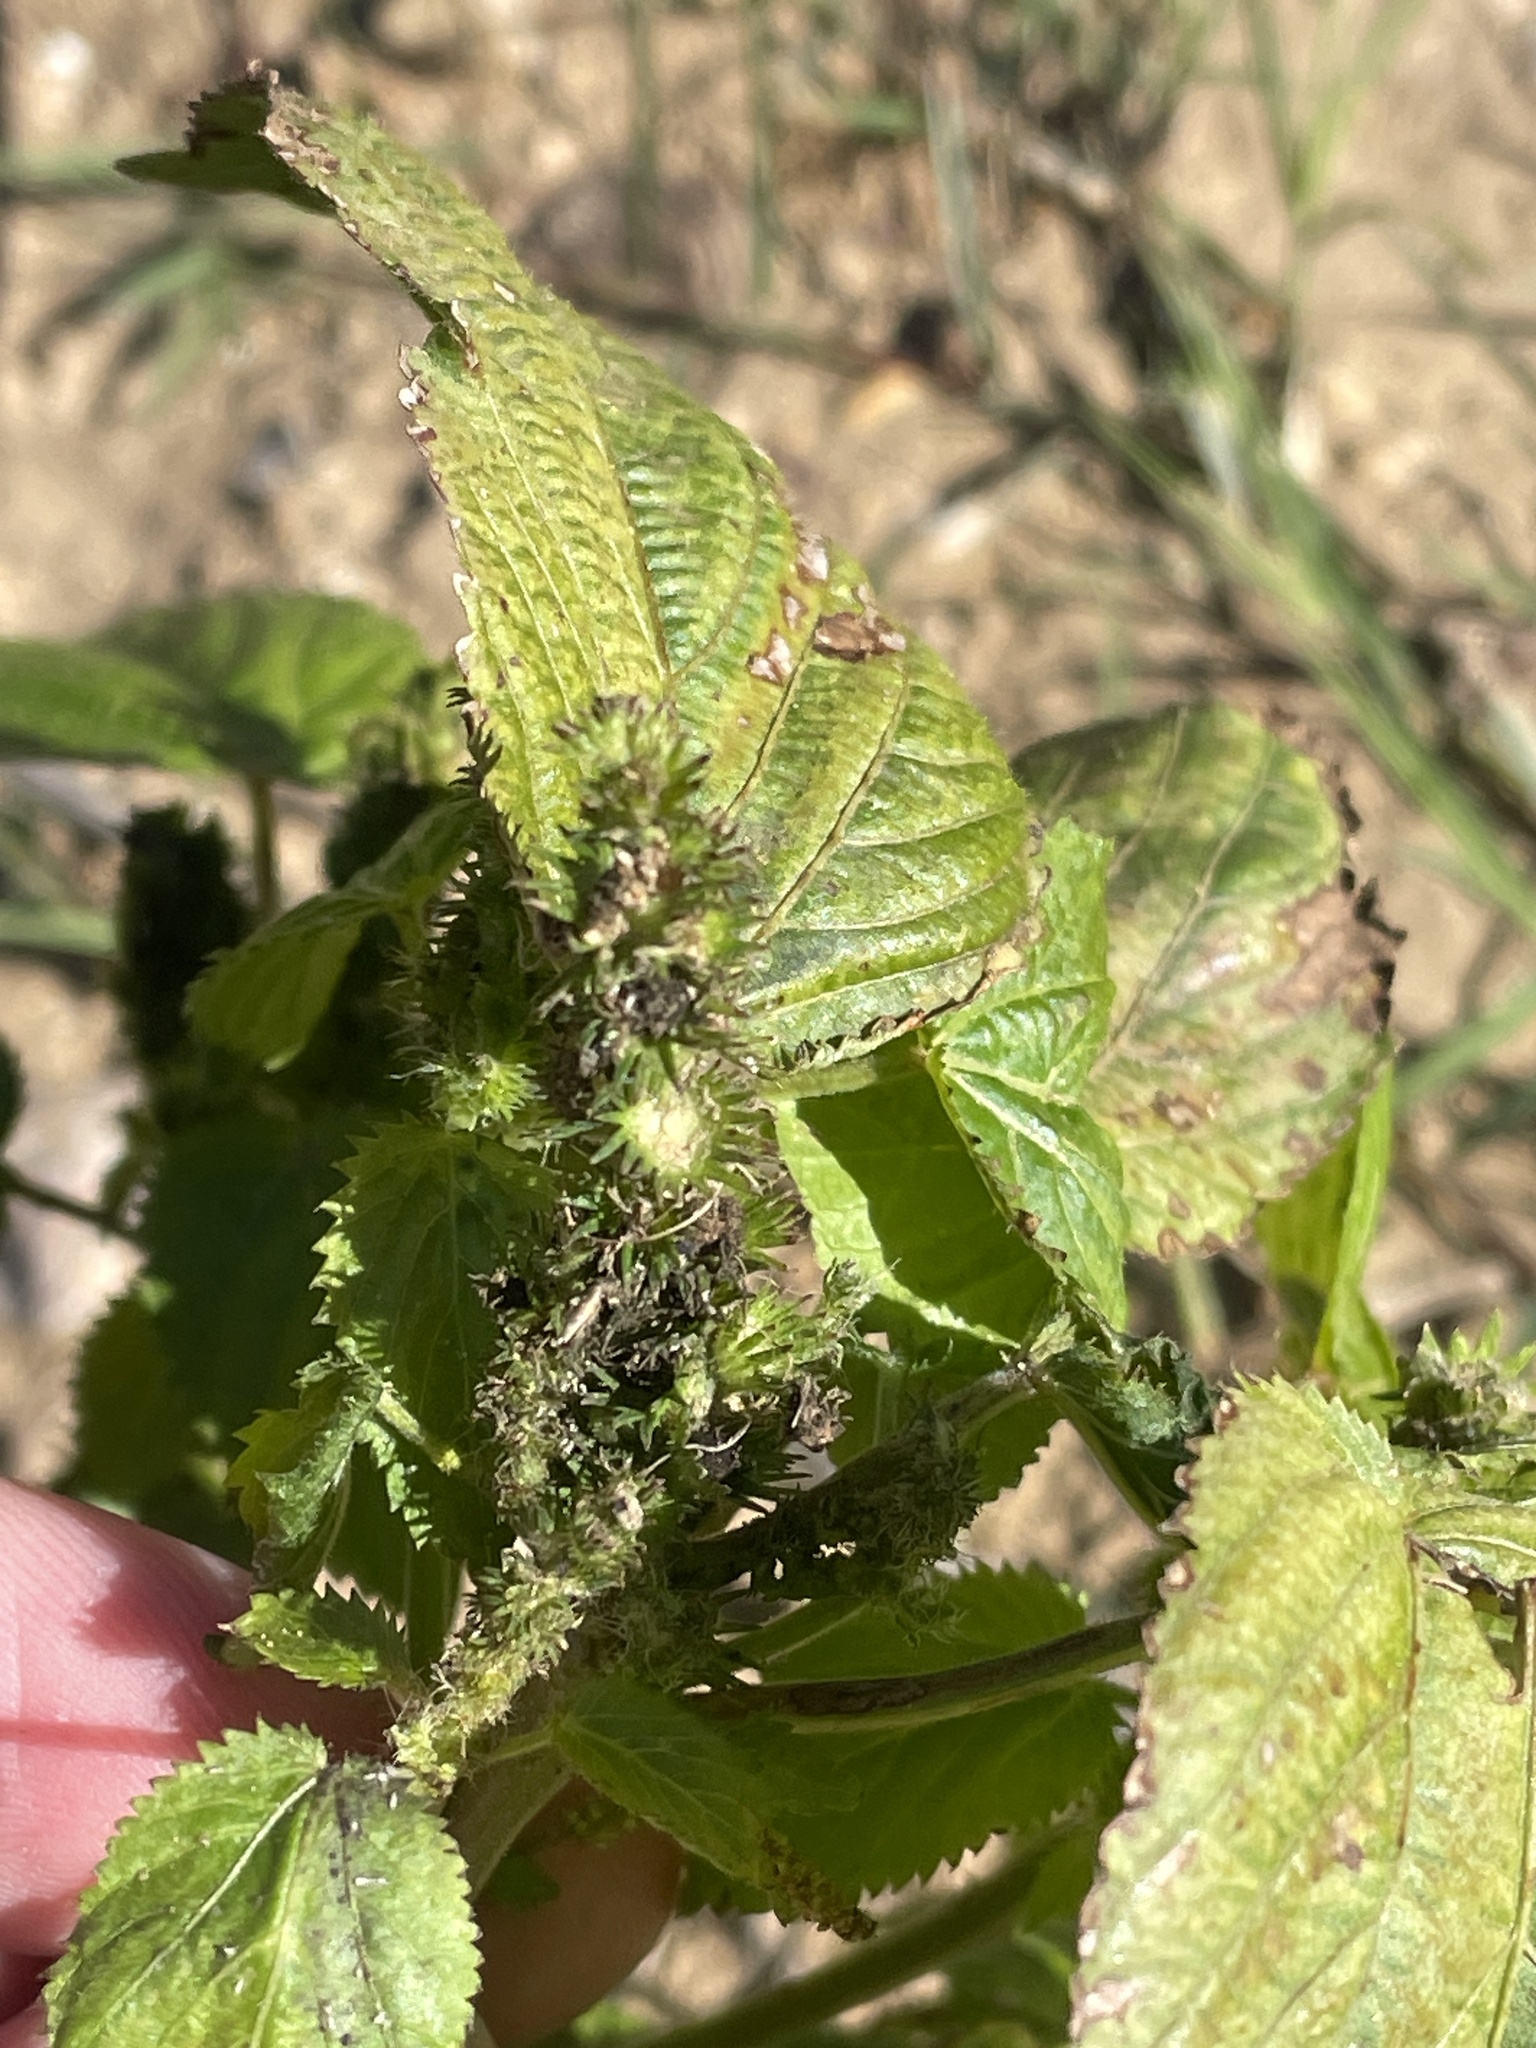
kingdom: Plantae
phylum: Tracheophyta
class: Magnoliopsida
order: Malpighiales
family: Euphorbiaceae
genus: Acalypha
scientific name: Acalypha ostryifolia
